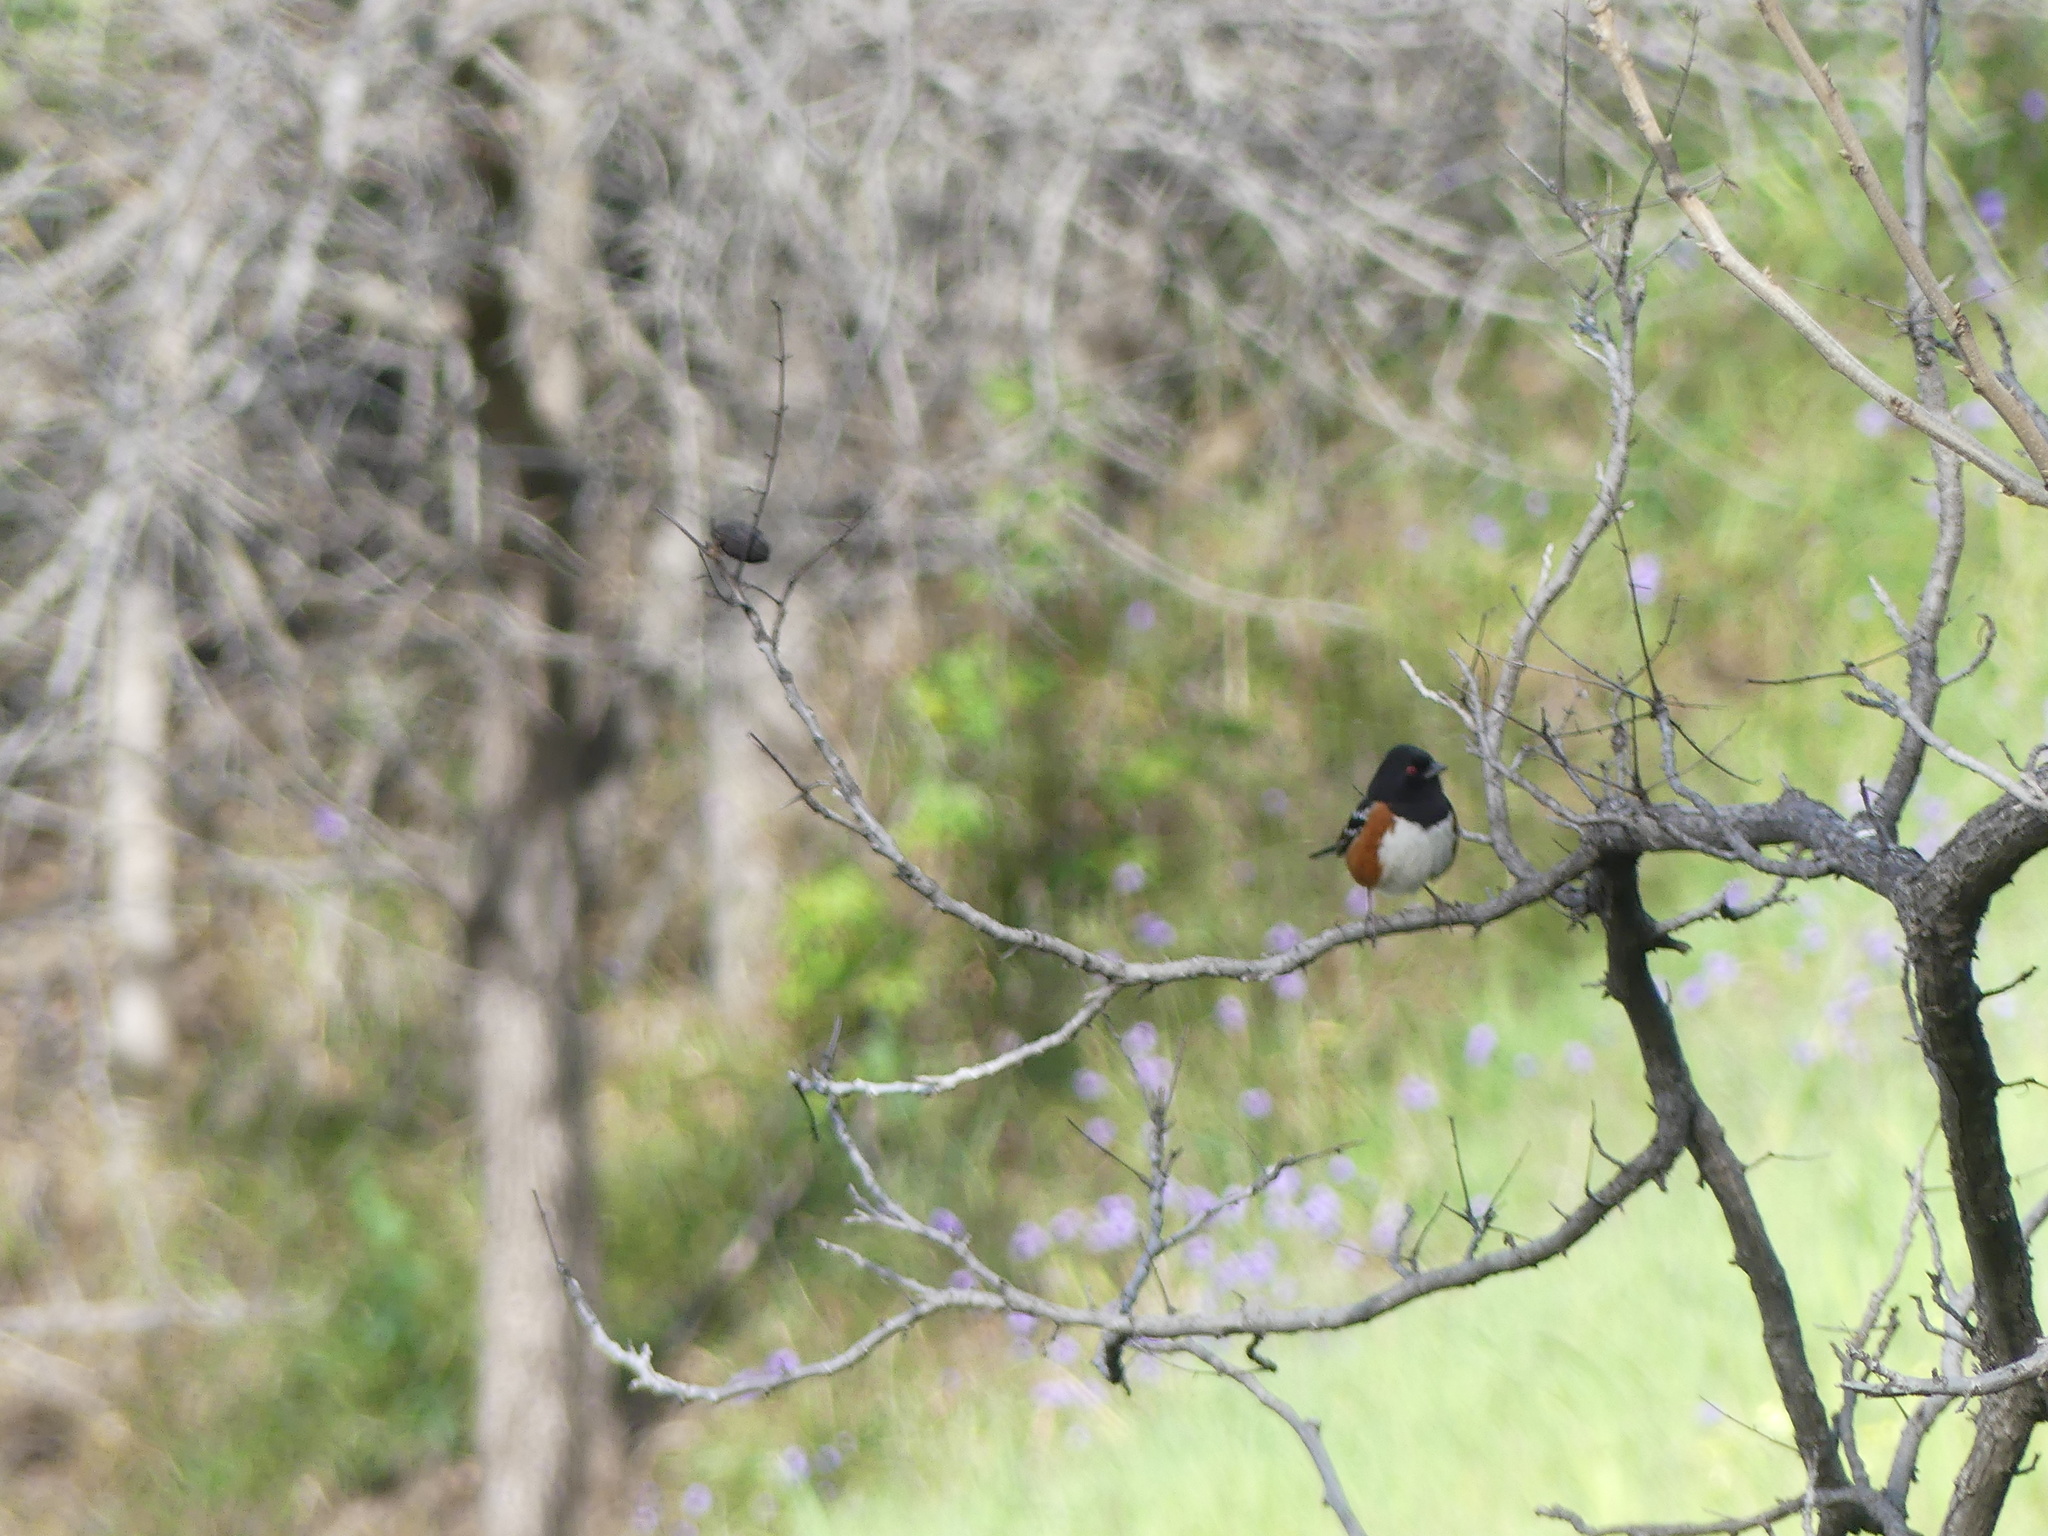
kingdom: Animalia
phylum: Chordata
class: Aves
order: Passeriformes
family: Passerellidae
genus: Pipilo
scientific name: Pipilo maculatus
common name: Spotted towhee
